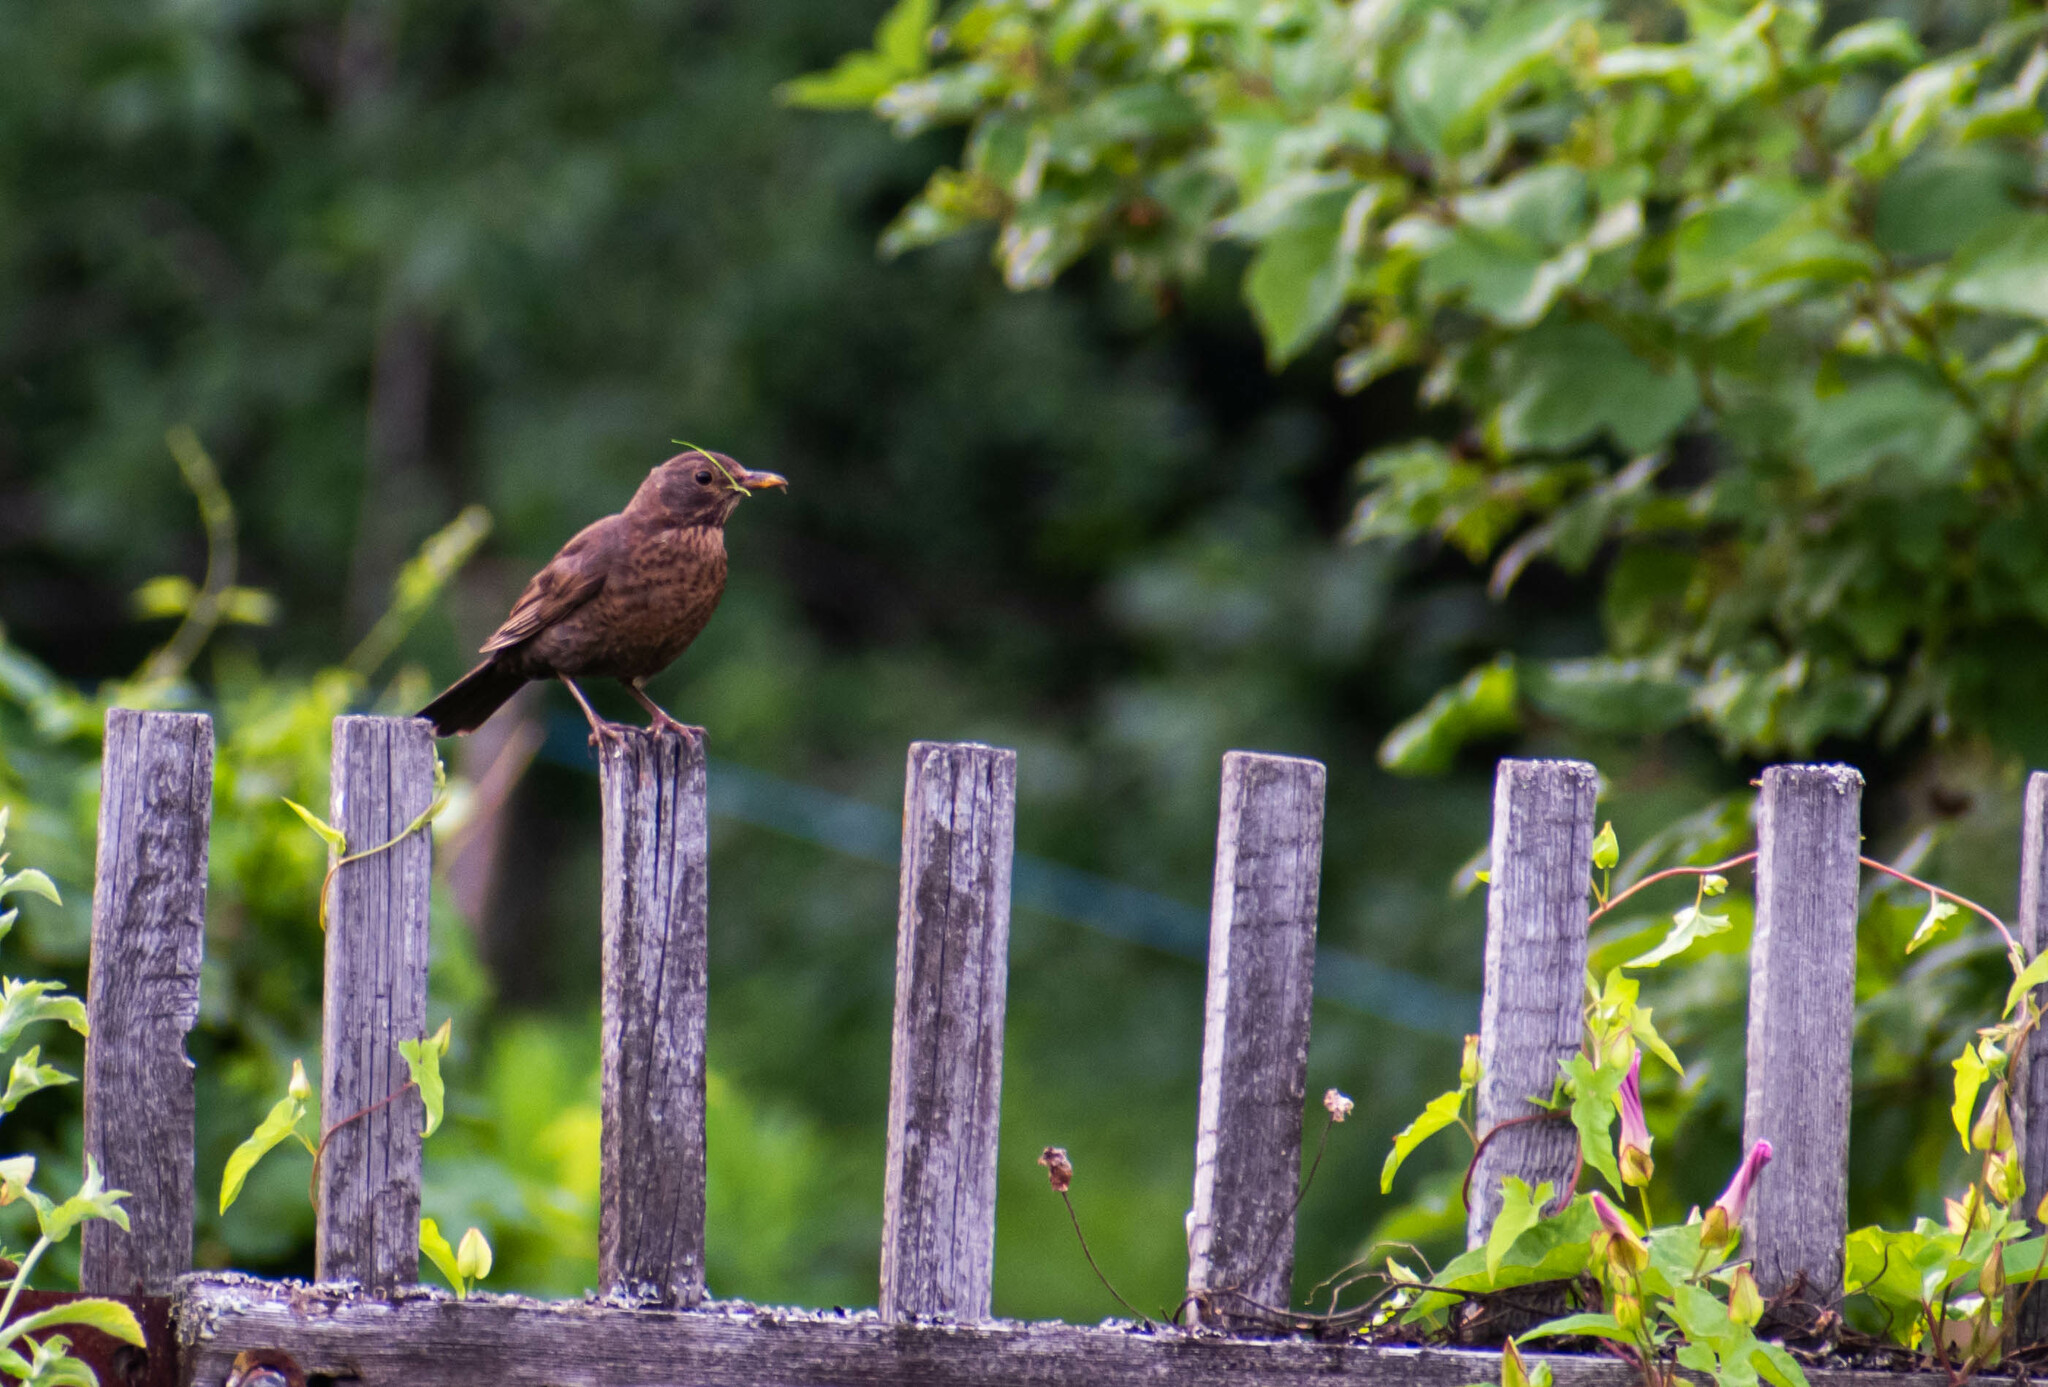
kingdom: Animalia
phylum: Chordata
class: Aves
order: Passeriformes
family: Turdidae
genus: Turdus
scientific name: Turdus merula
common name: Common blackbird
